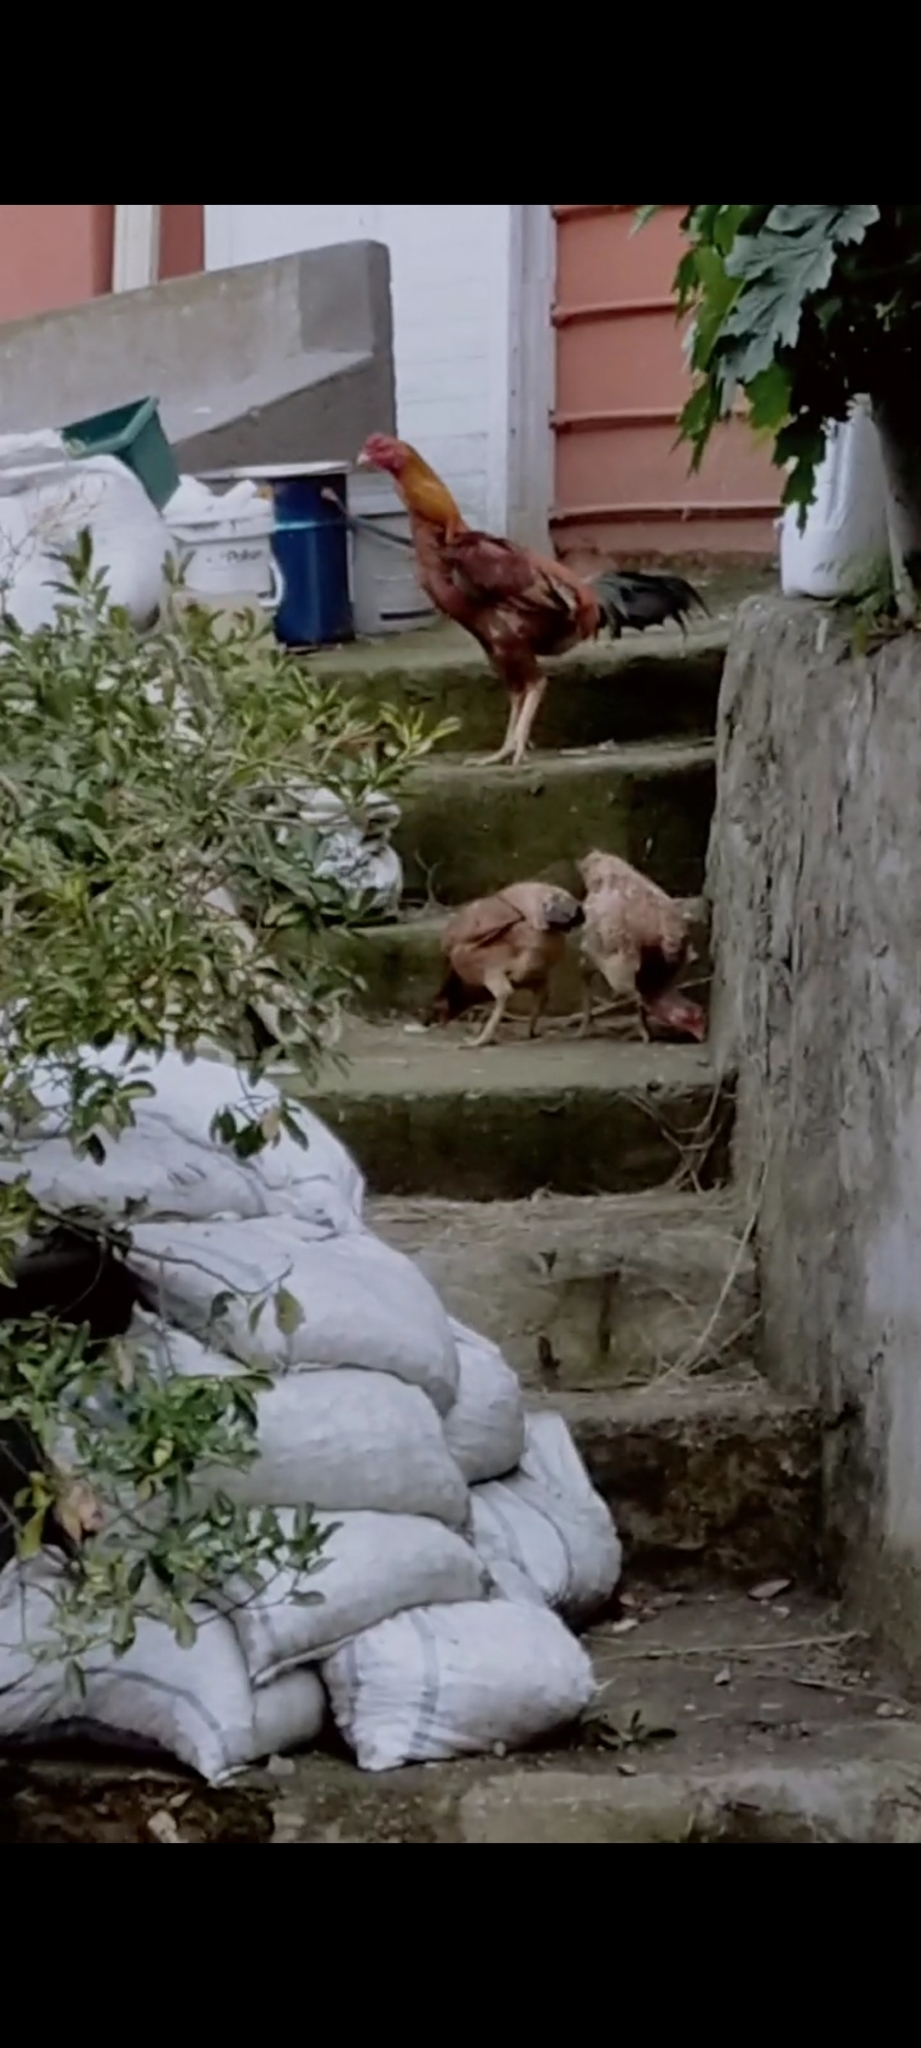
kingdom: Animalia
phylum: Chordata
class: Aves
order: Galliformes
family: Phasianidae
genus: Gallus
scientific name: Gallus gallus
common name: Red junglefowl
